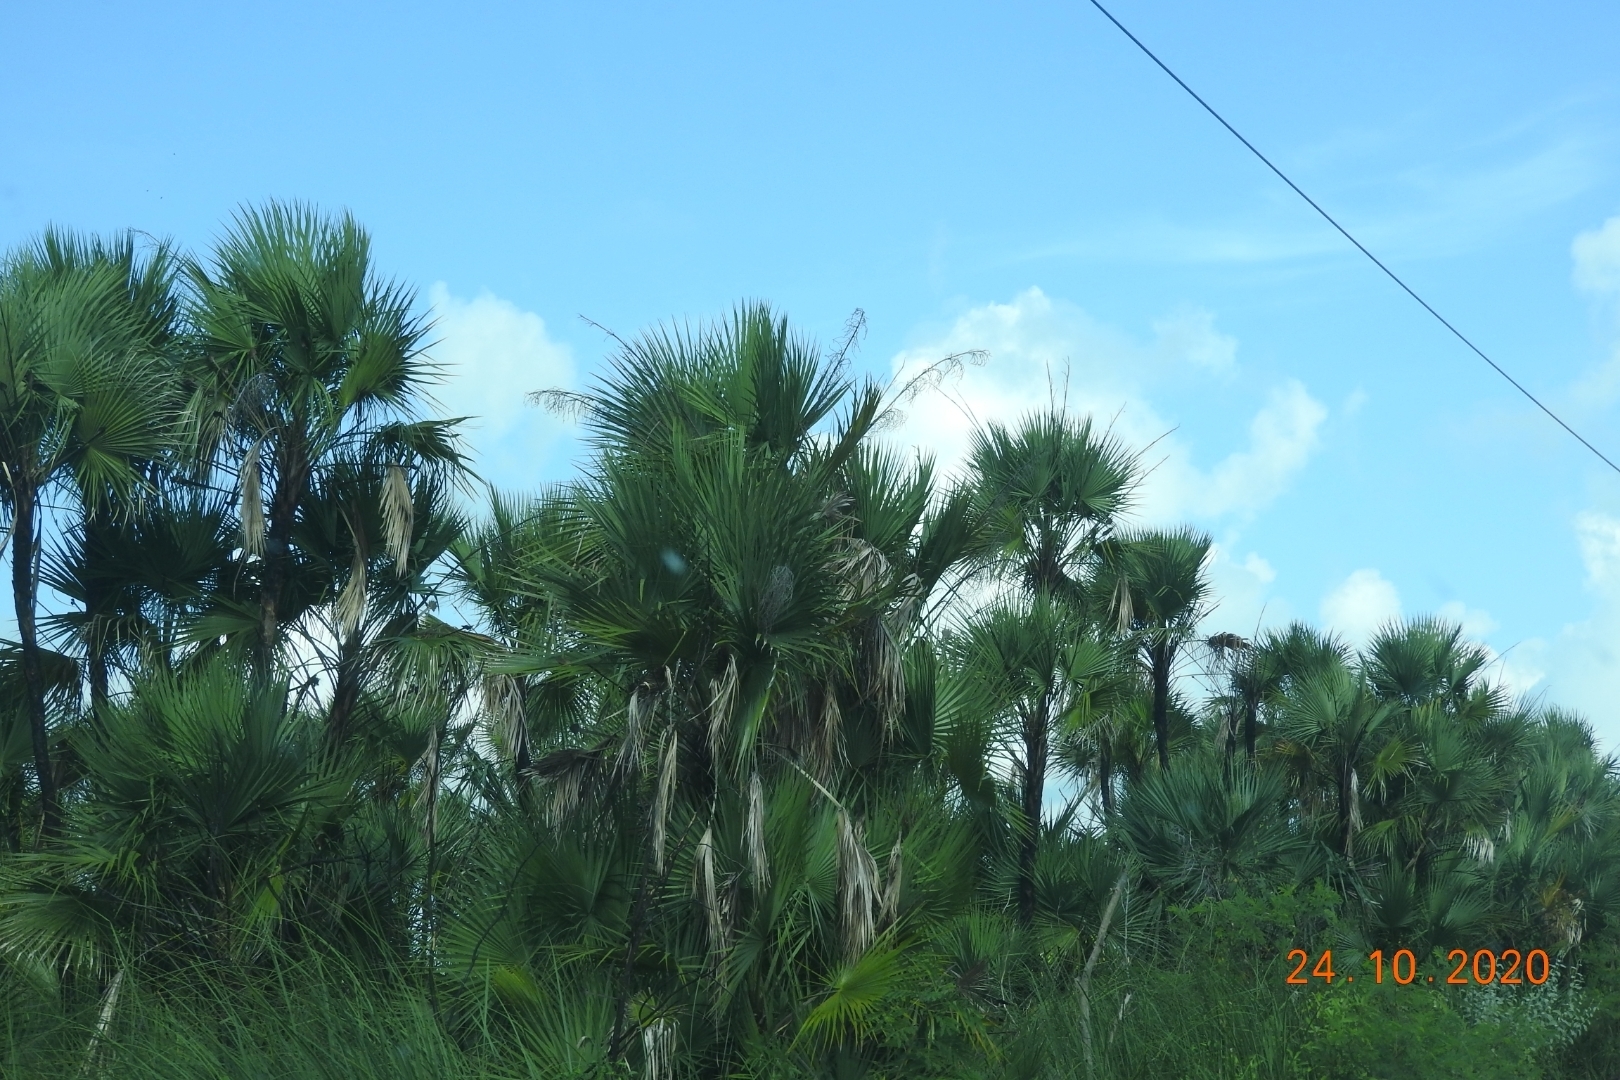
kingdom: Plantae
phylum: Tracheophyta
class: Liliopsida
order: Arecales
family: Arecaceae
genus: Coccothrinax
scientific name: Coccothrinax readii
